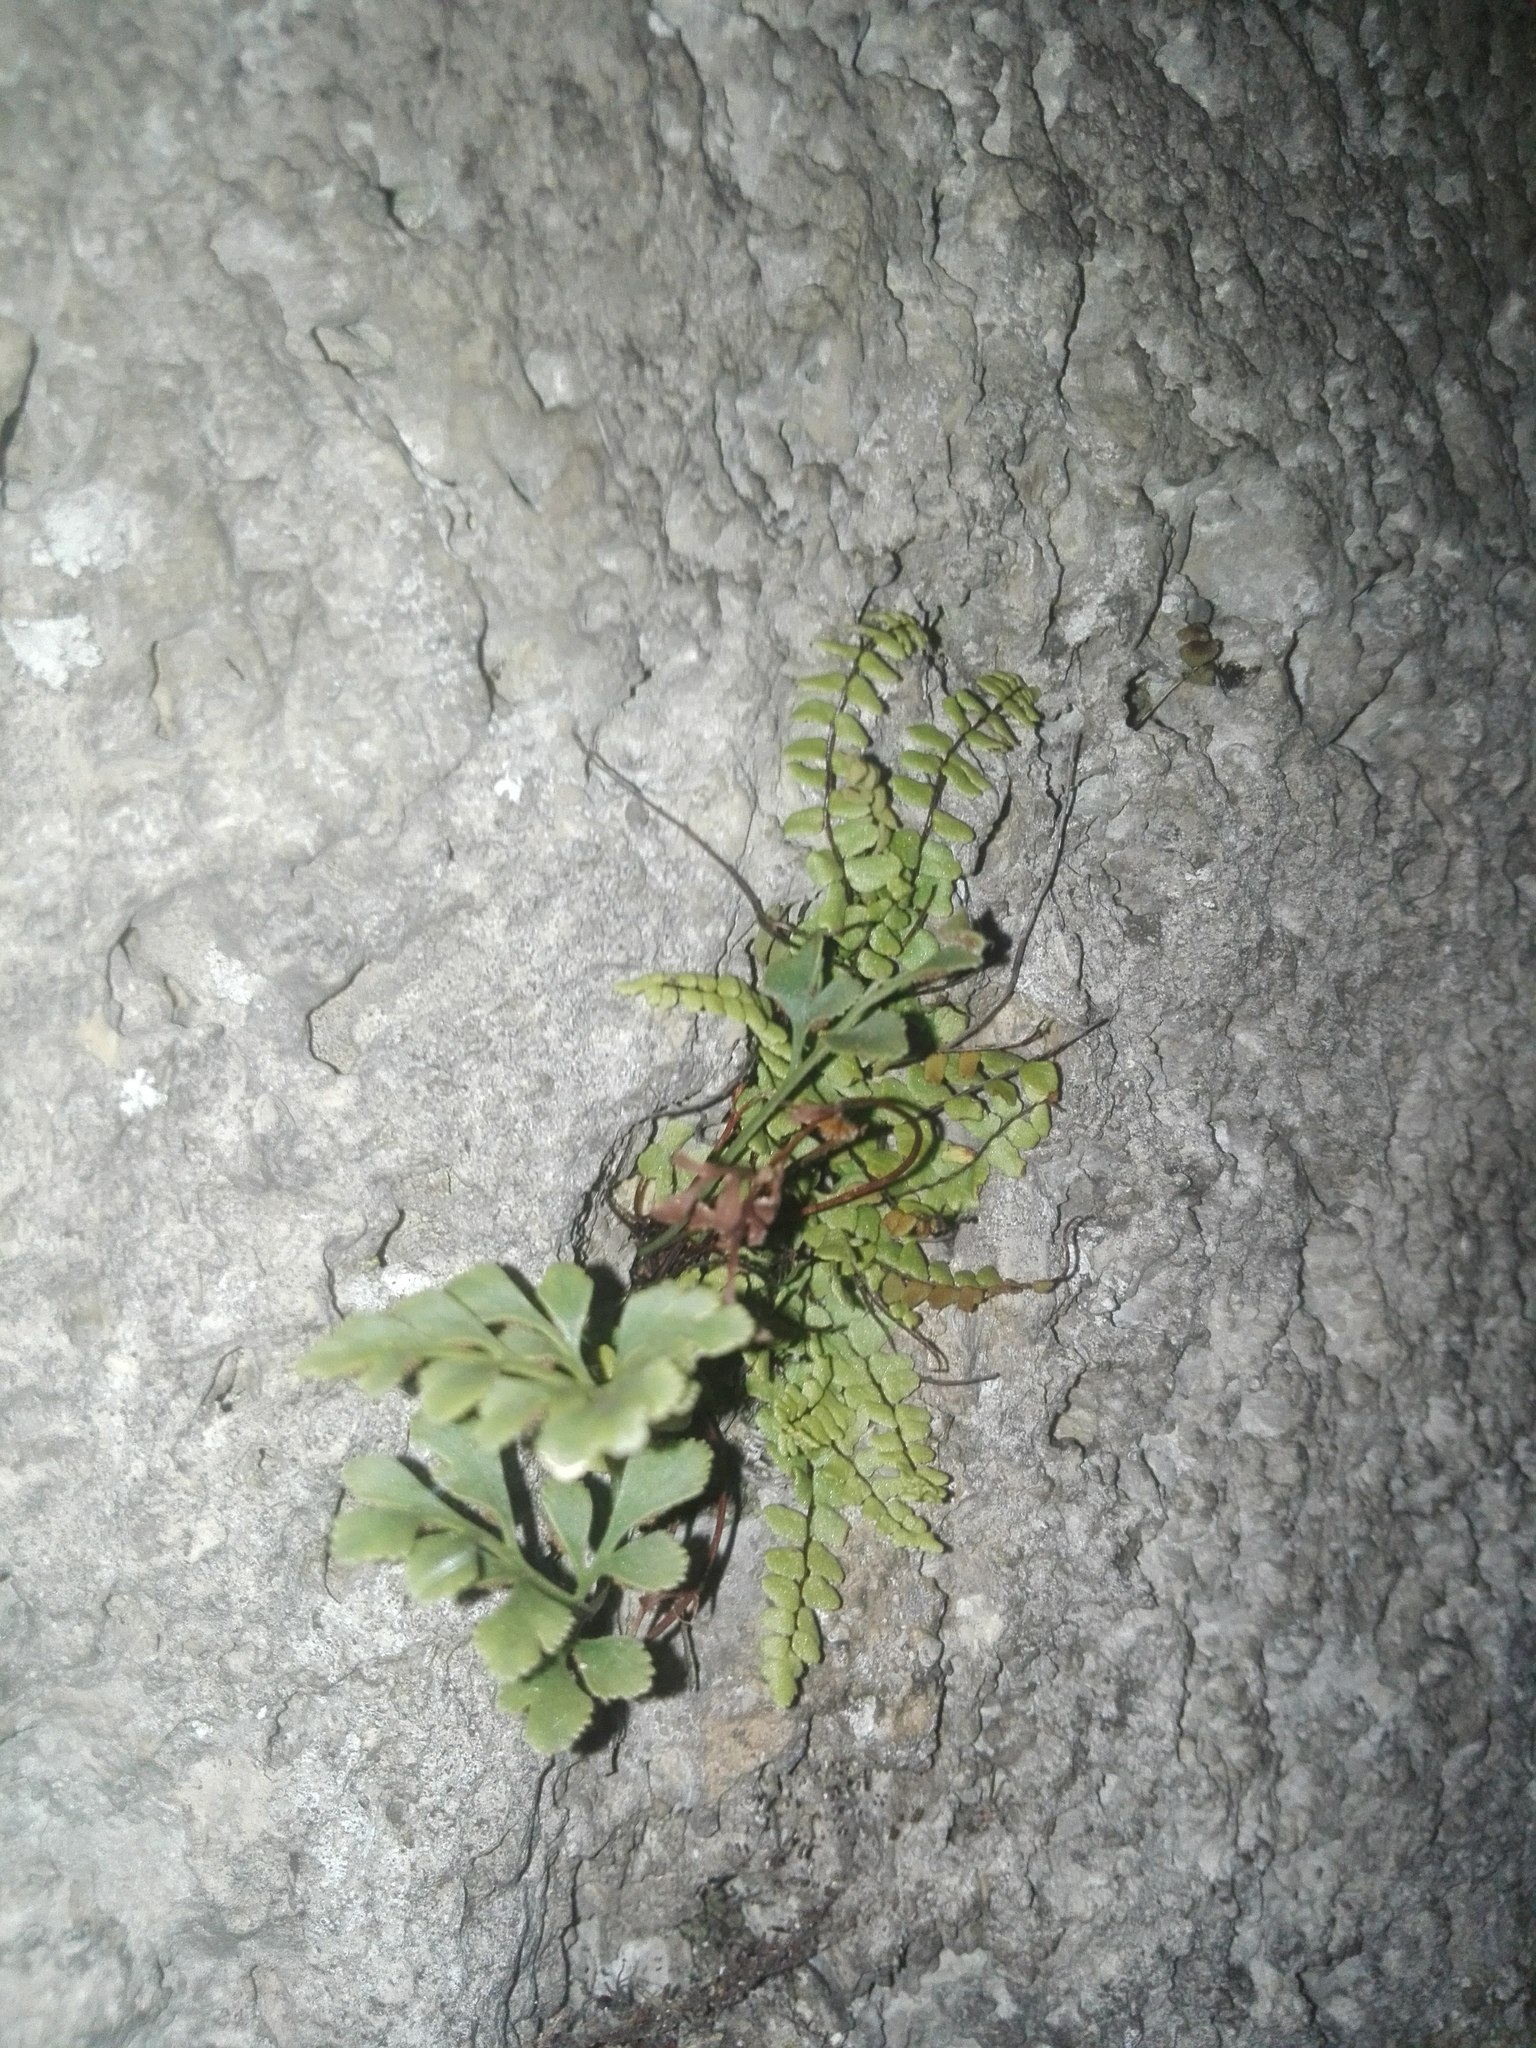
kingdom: Plantae
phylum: Tracheophyta
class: Polypodiopsida
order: Polypodiales
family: Aspleniaceae
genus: Asplenium
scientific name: Asplenium trichomanes
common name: Maidenhair spleenwort
